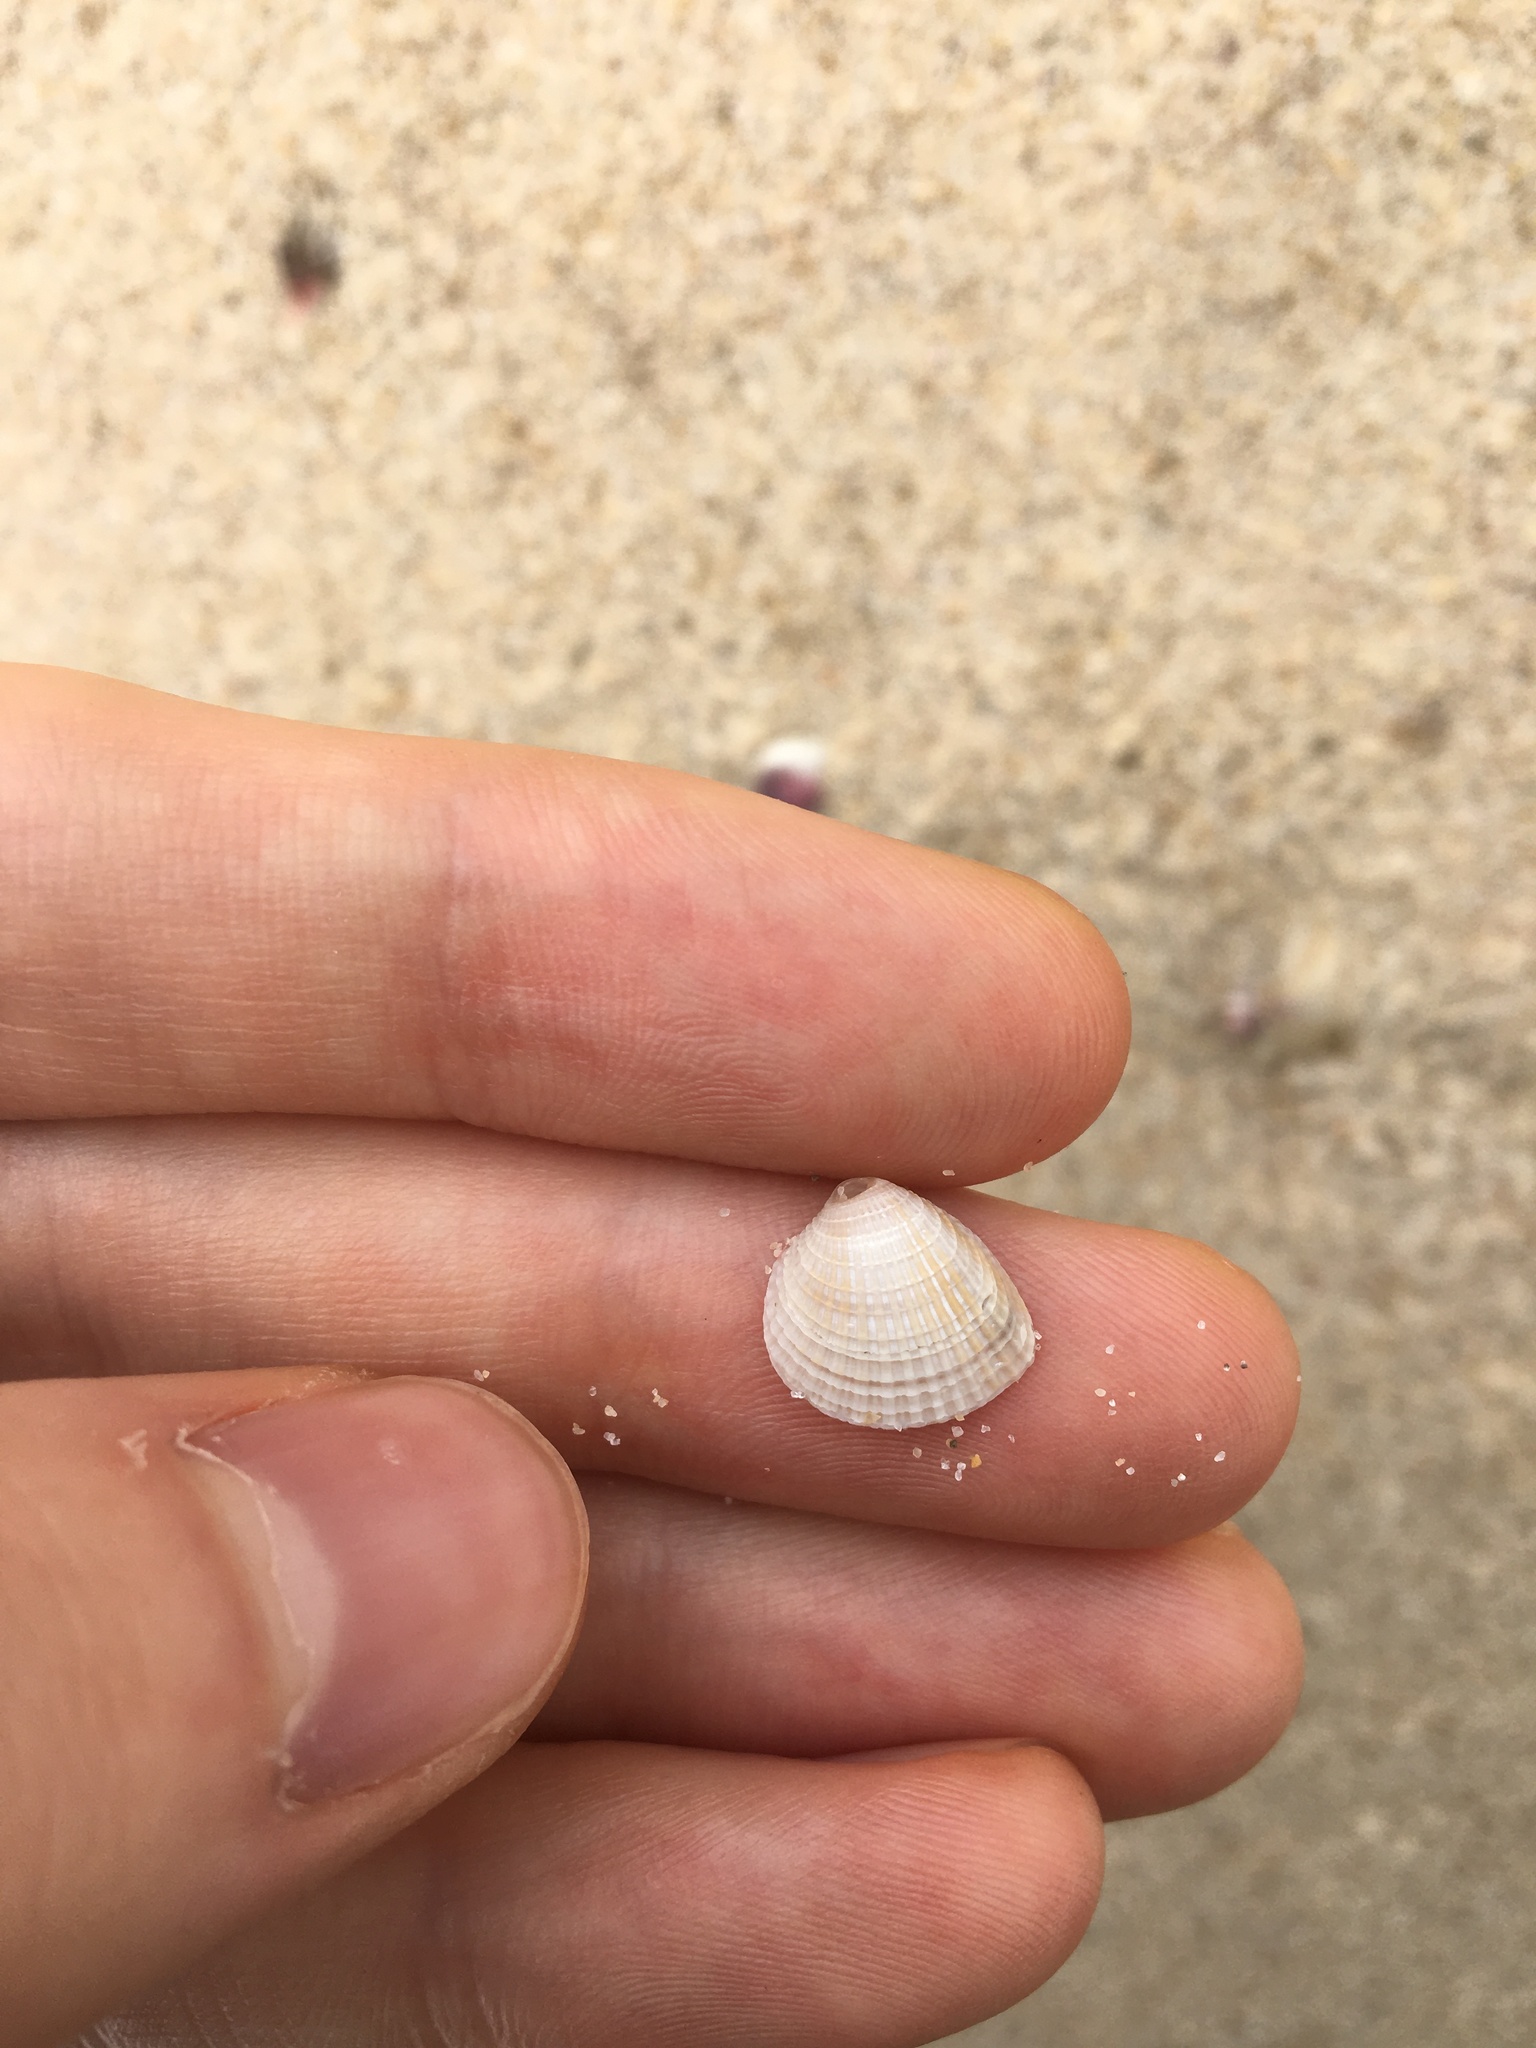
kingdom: Animalia
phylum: Mollusca
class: Bivalvia
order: Venerida
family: Veneridae
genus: Timoclea
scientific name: Timoclea scabra
